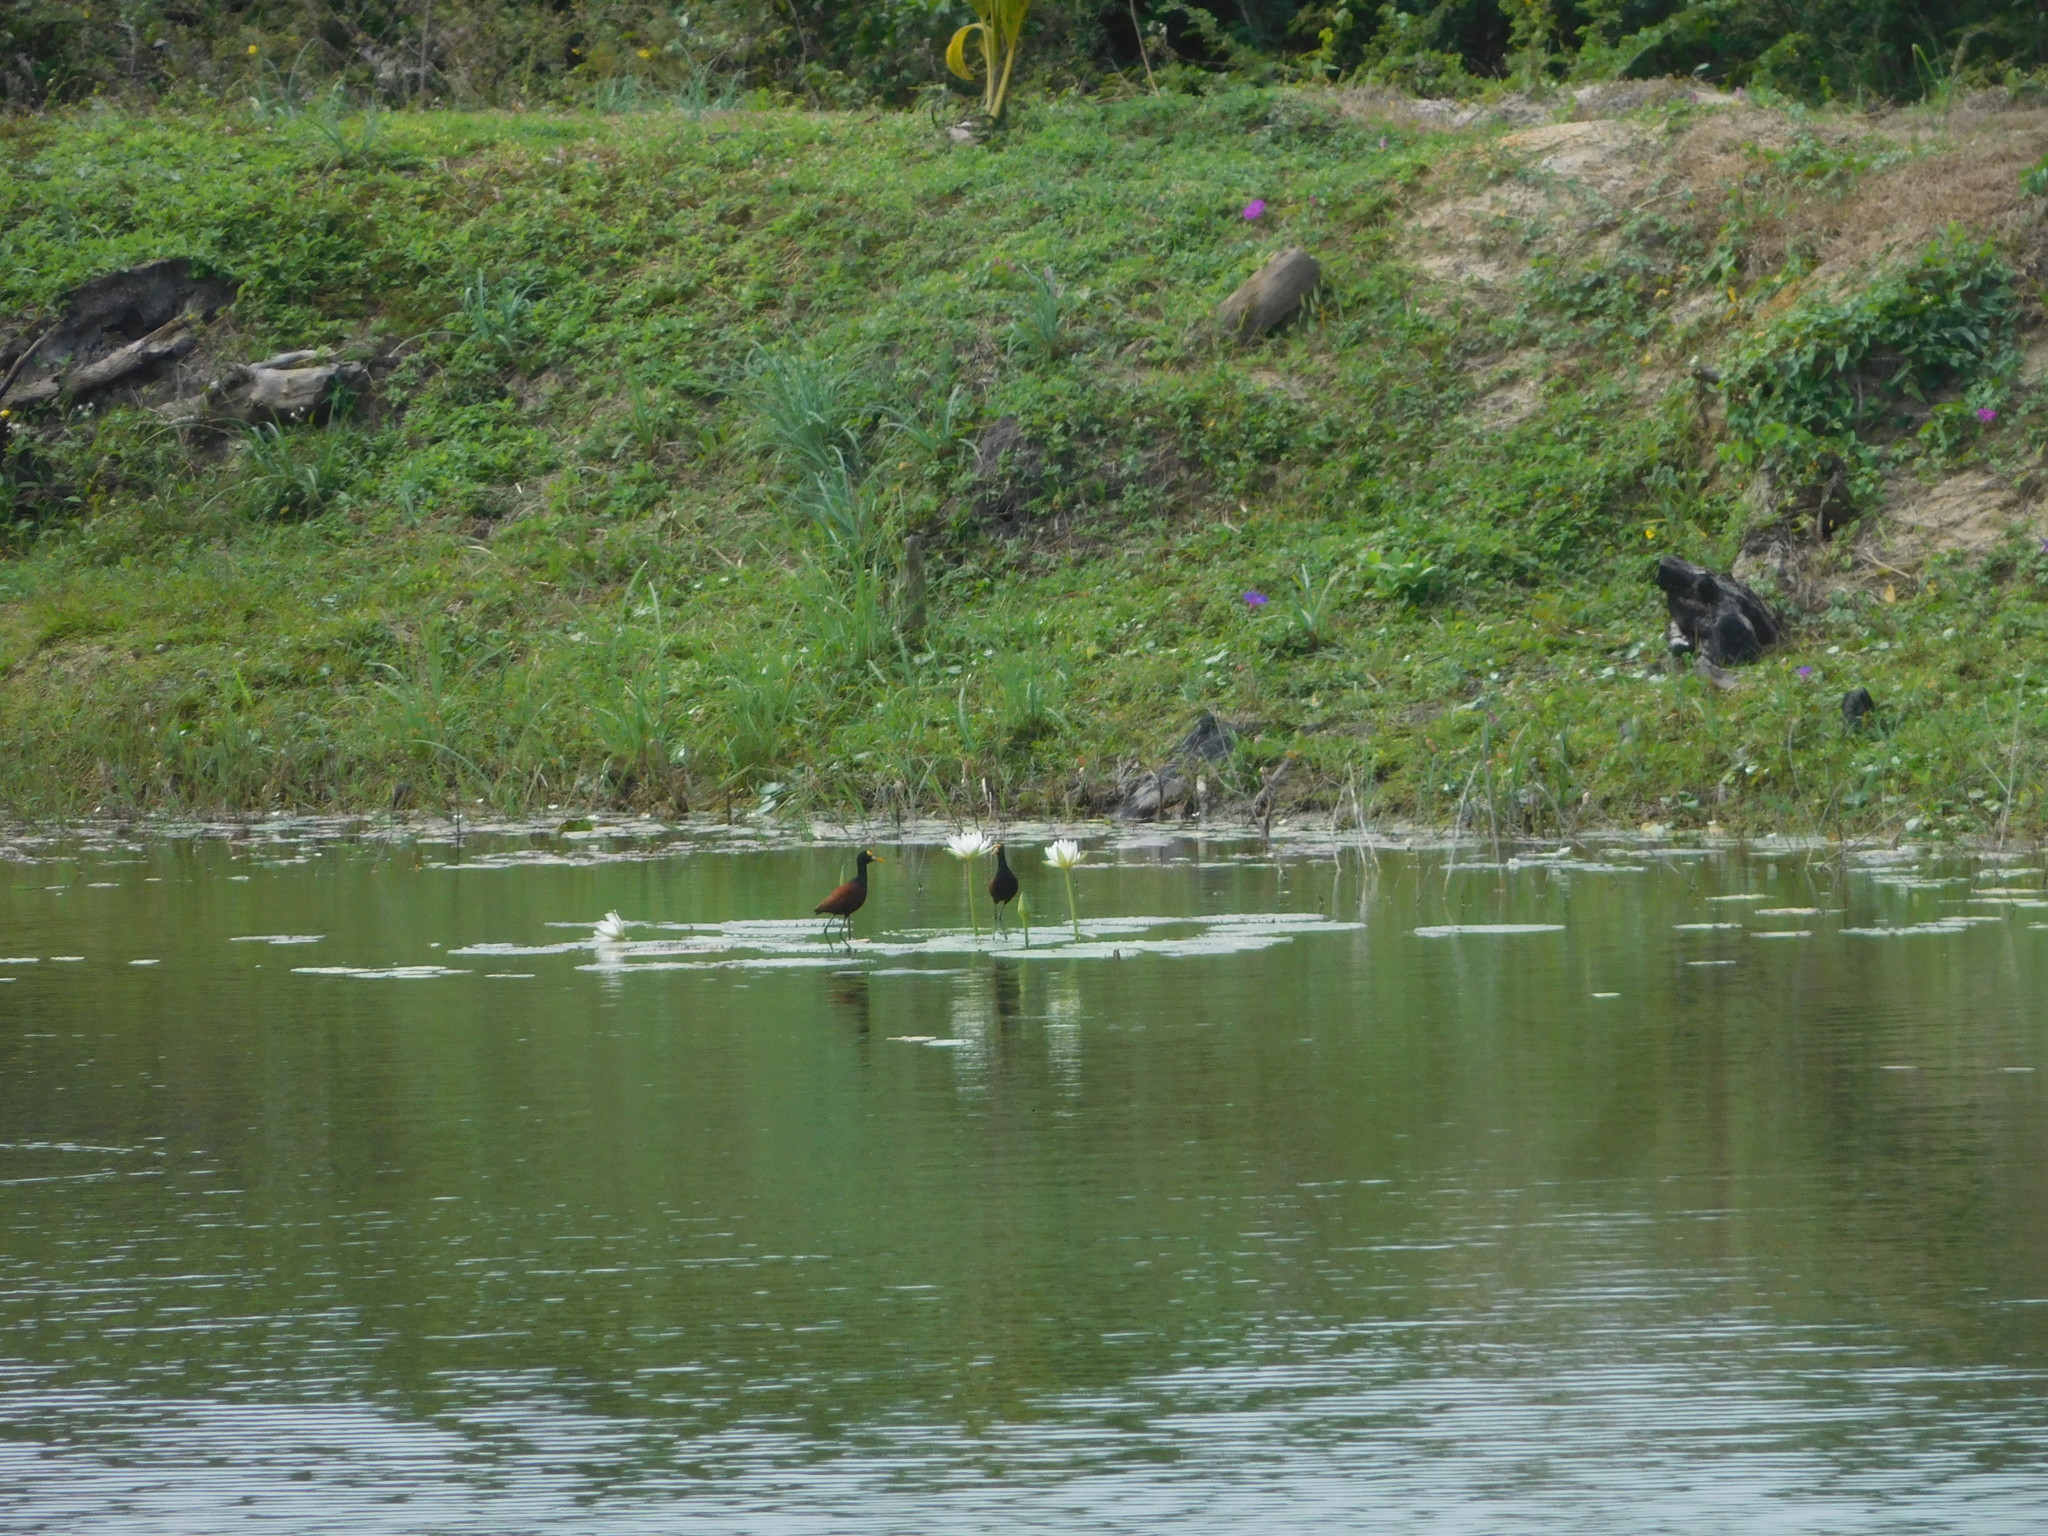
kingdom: Animalia
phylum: Chordata
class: Aves
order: Charadriiformes
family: Jacanidae
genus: Jacana
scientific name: Jacana spinosa
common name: Northern jacana
